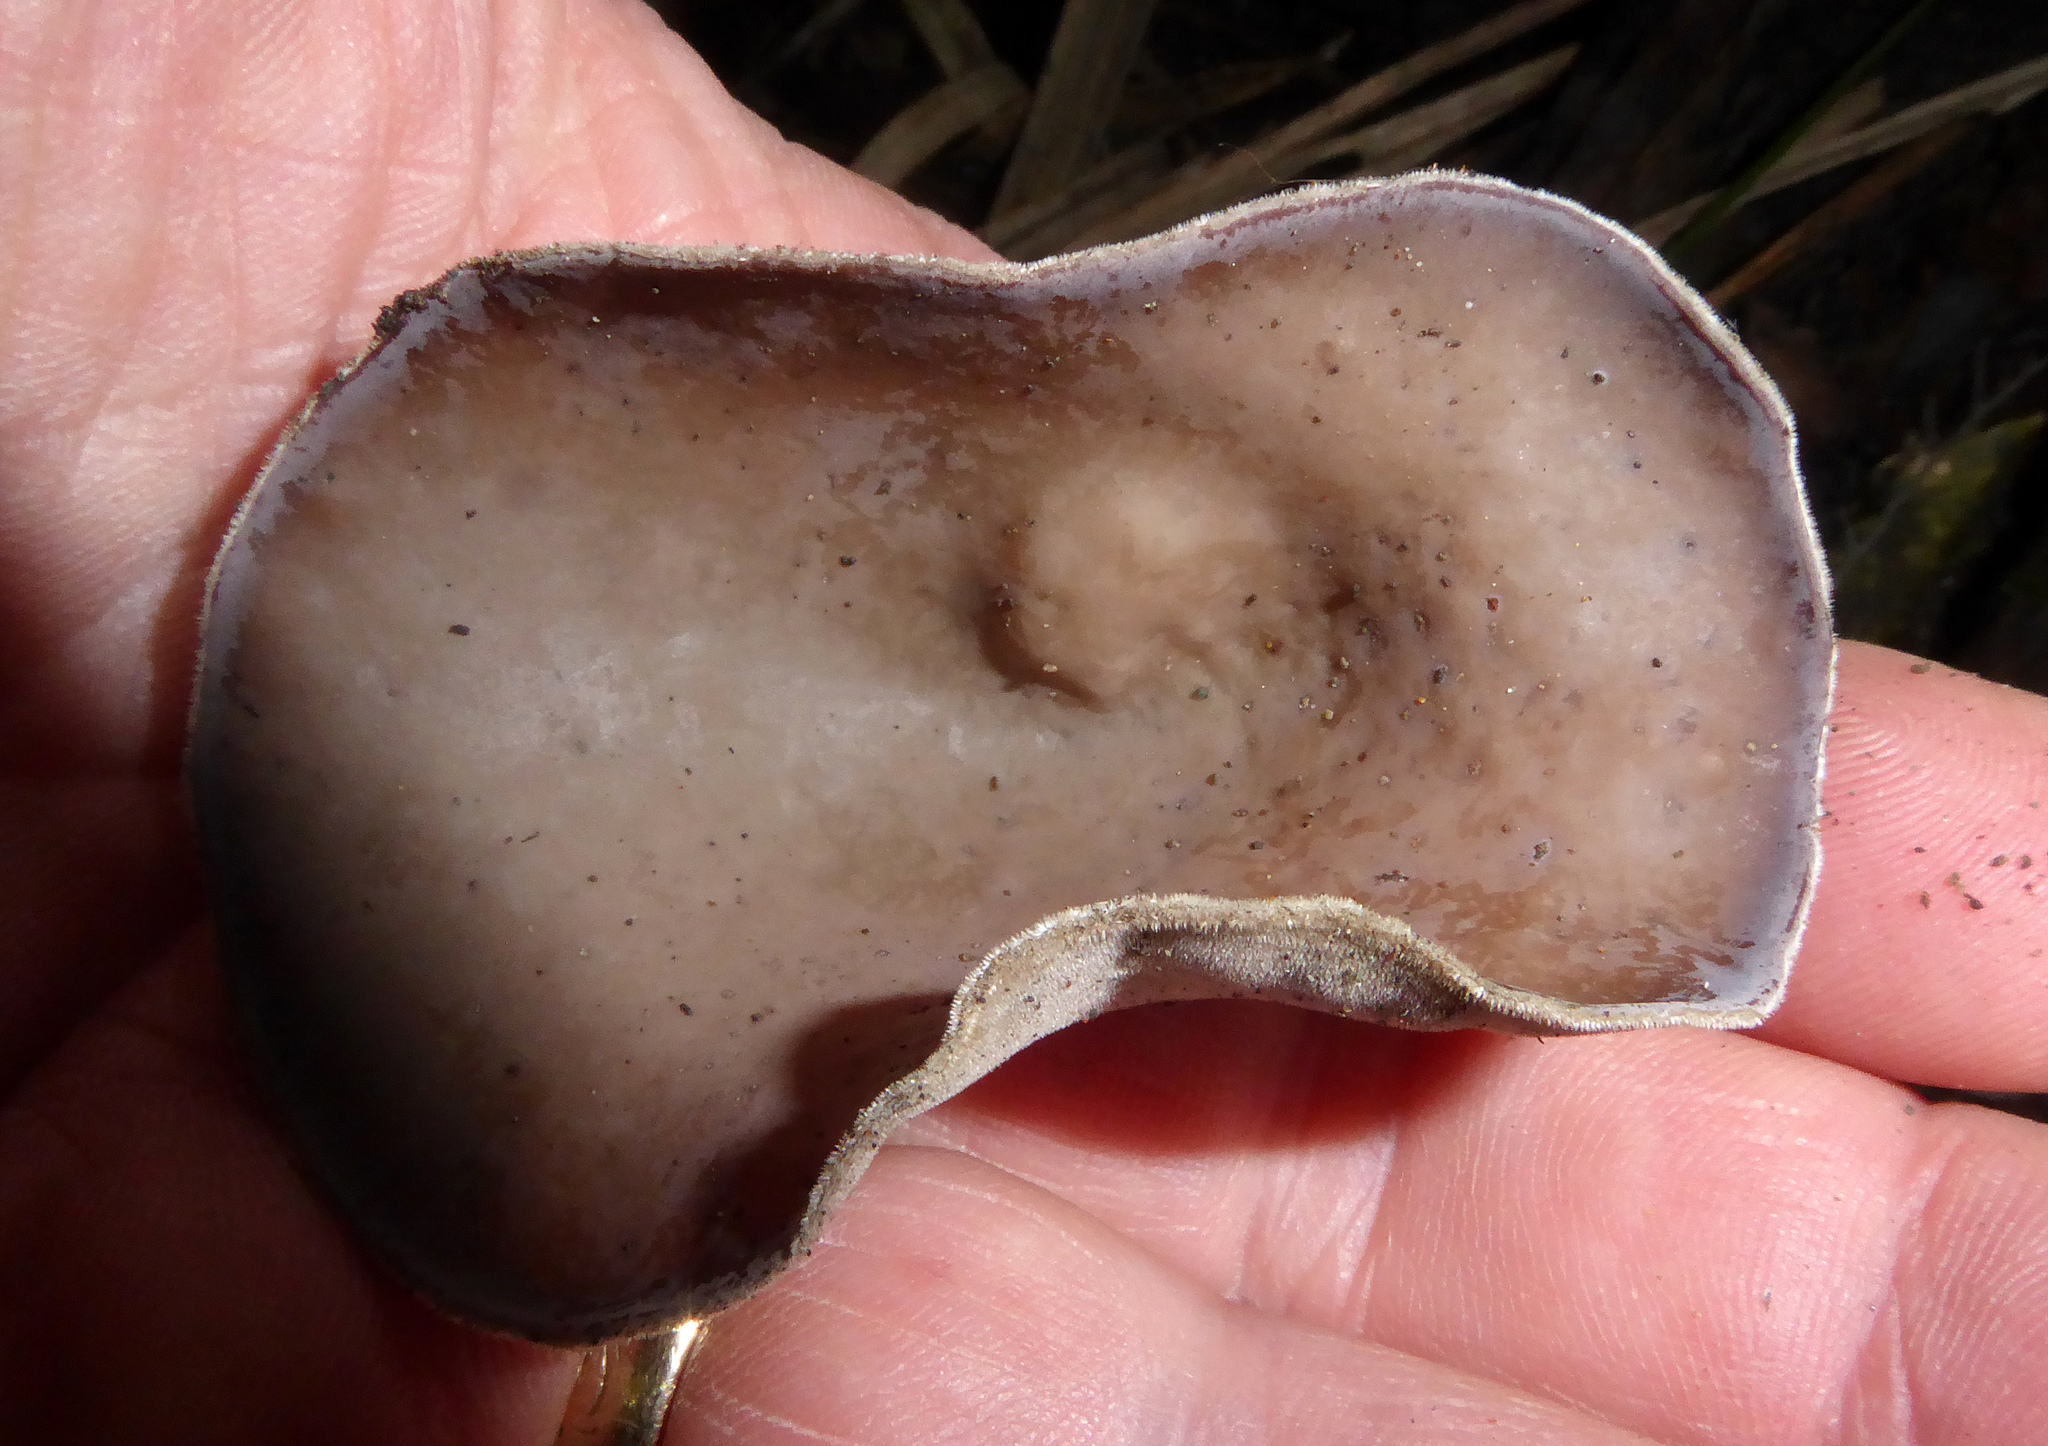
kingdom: Fungi
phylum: Basidiomycota
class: Agaricomycetes
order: Auriculariales
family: Auriculariaceae
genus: Auricularia
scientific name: Auricularia cornea
